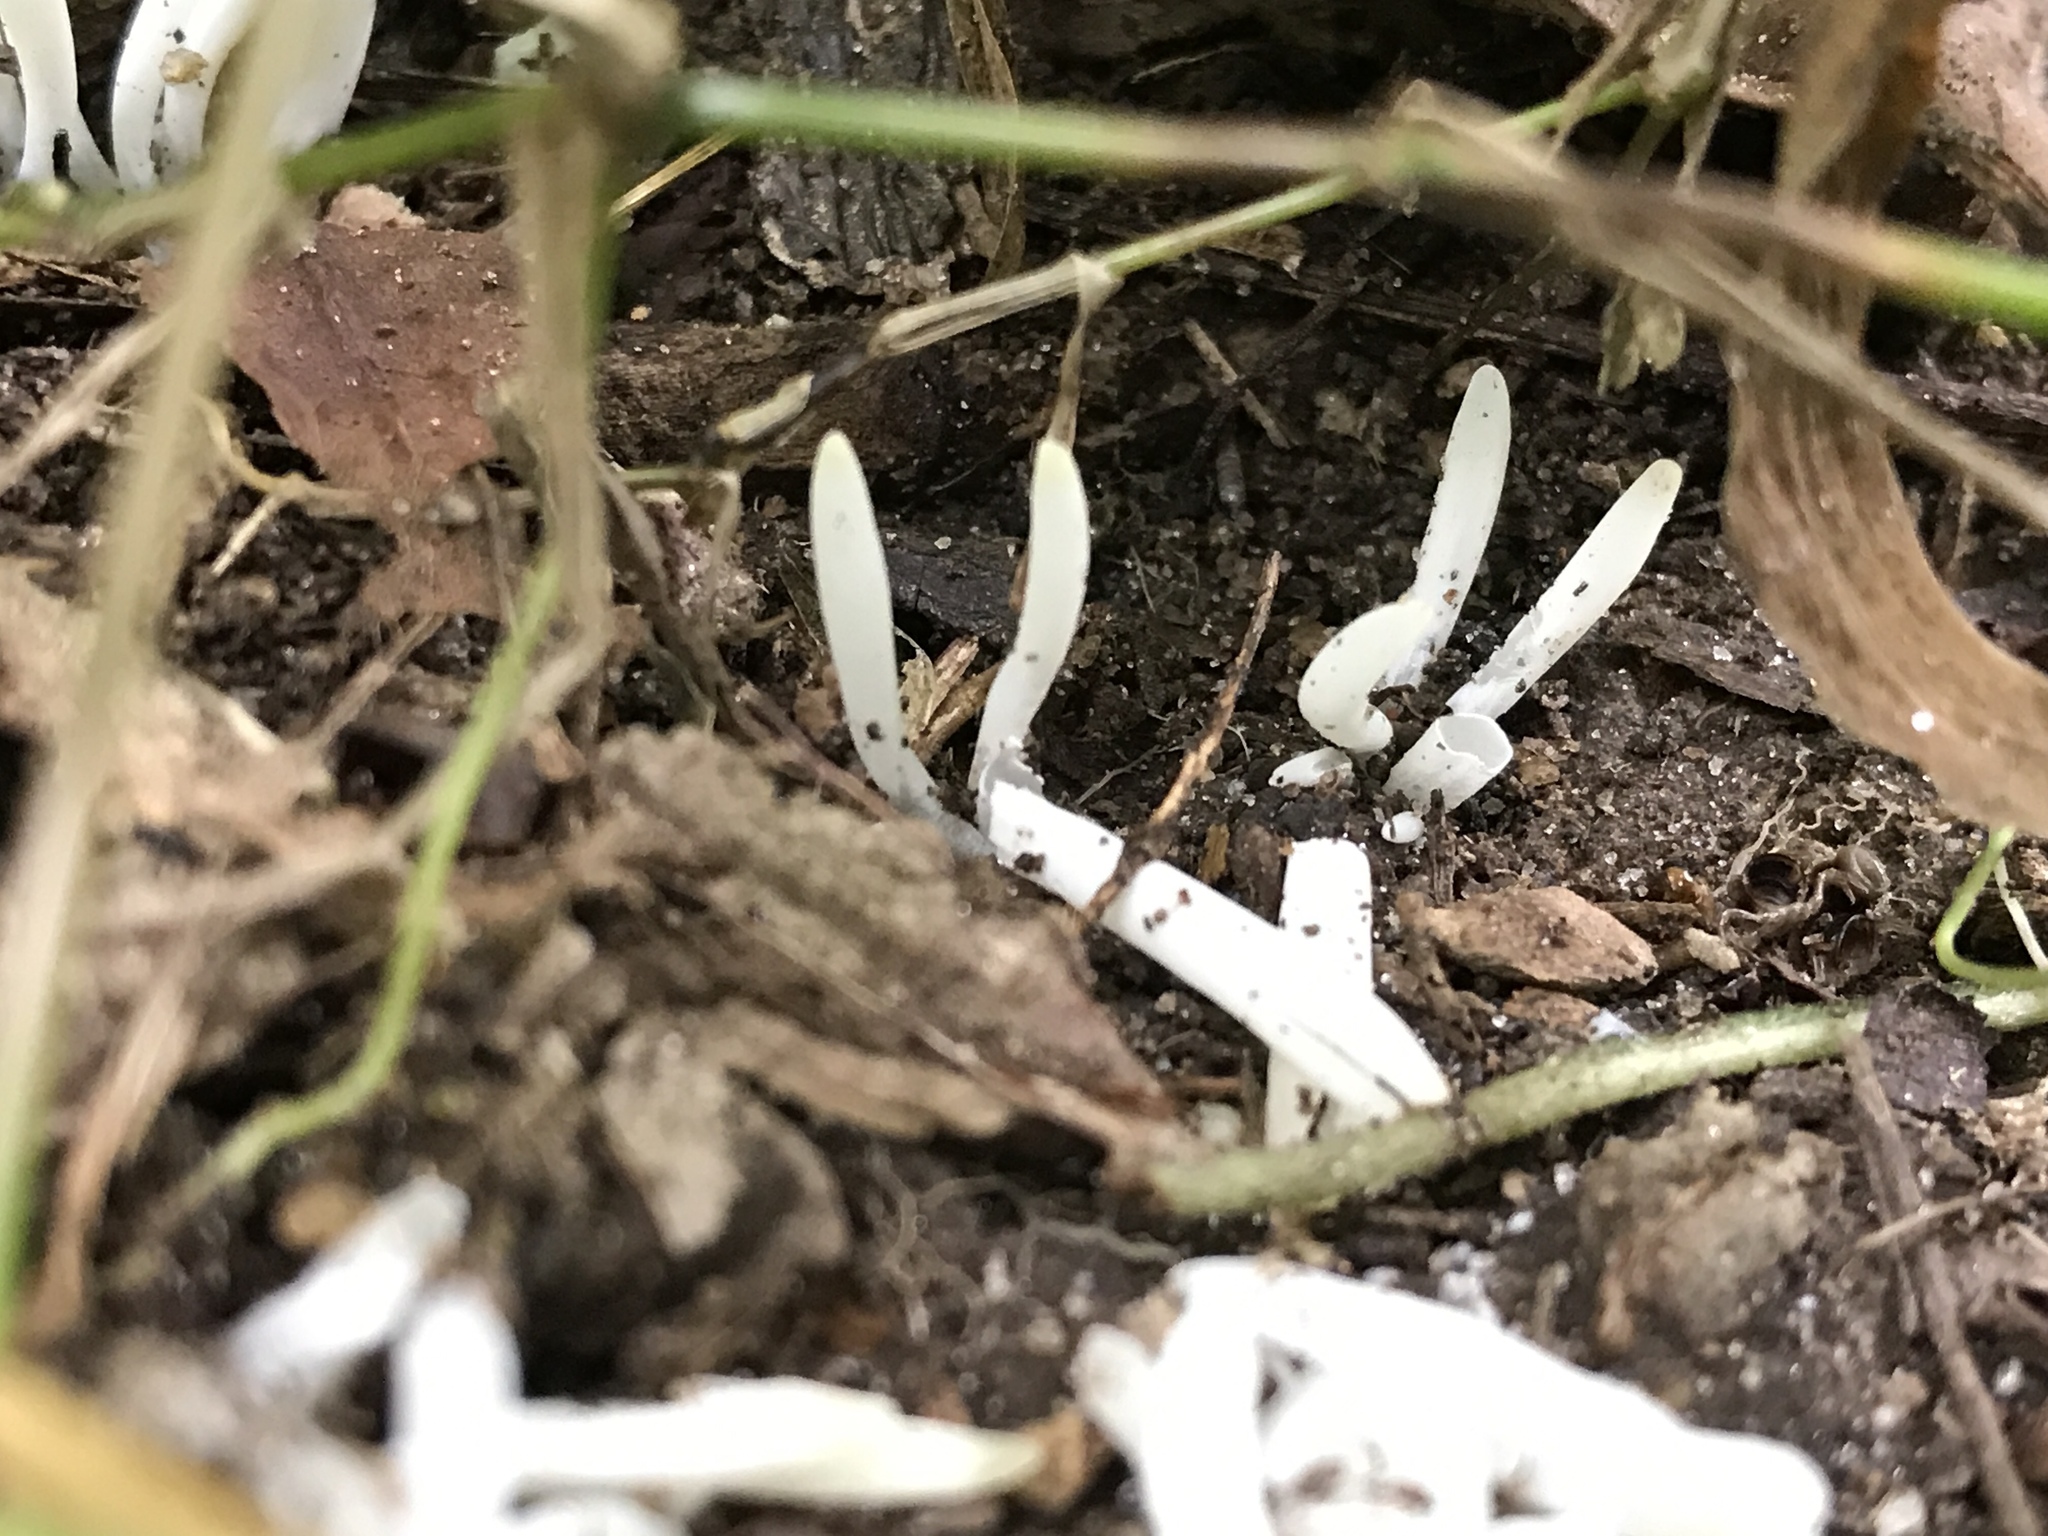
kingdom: Fungi
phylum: Basidiomycota
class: Agaricomycetes
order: Agaricales
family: Clavariaceae
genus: Clavaria
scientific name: Clavaria fragilis
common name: White spindles
